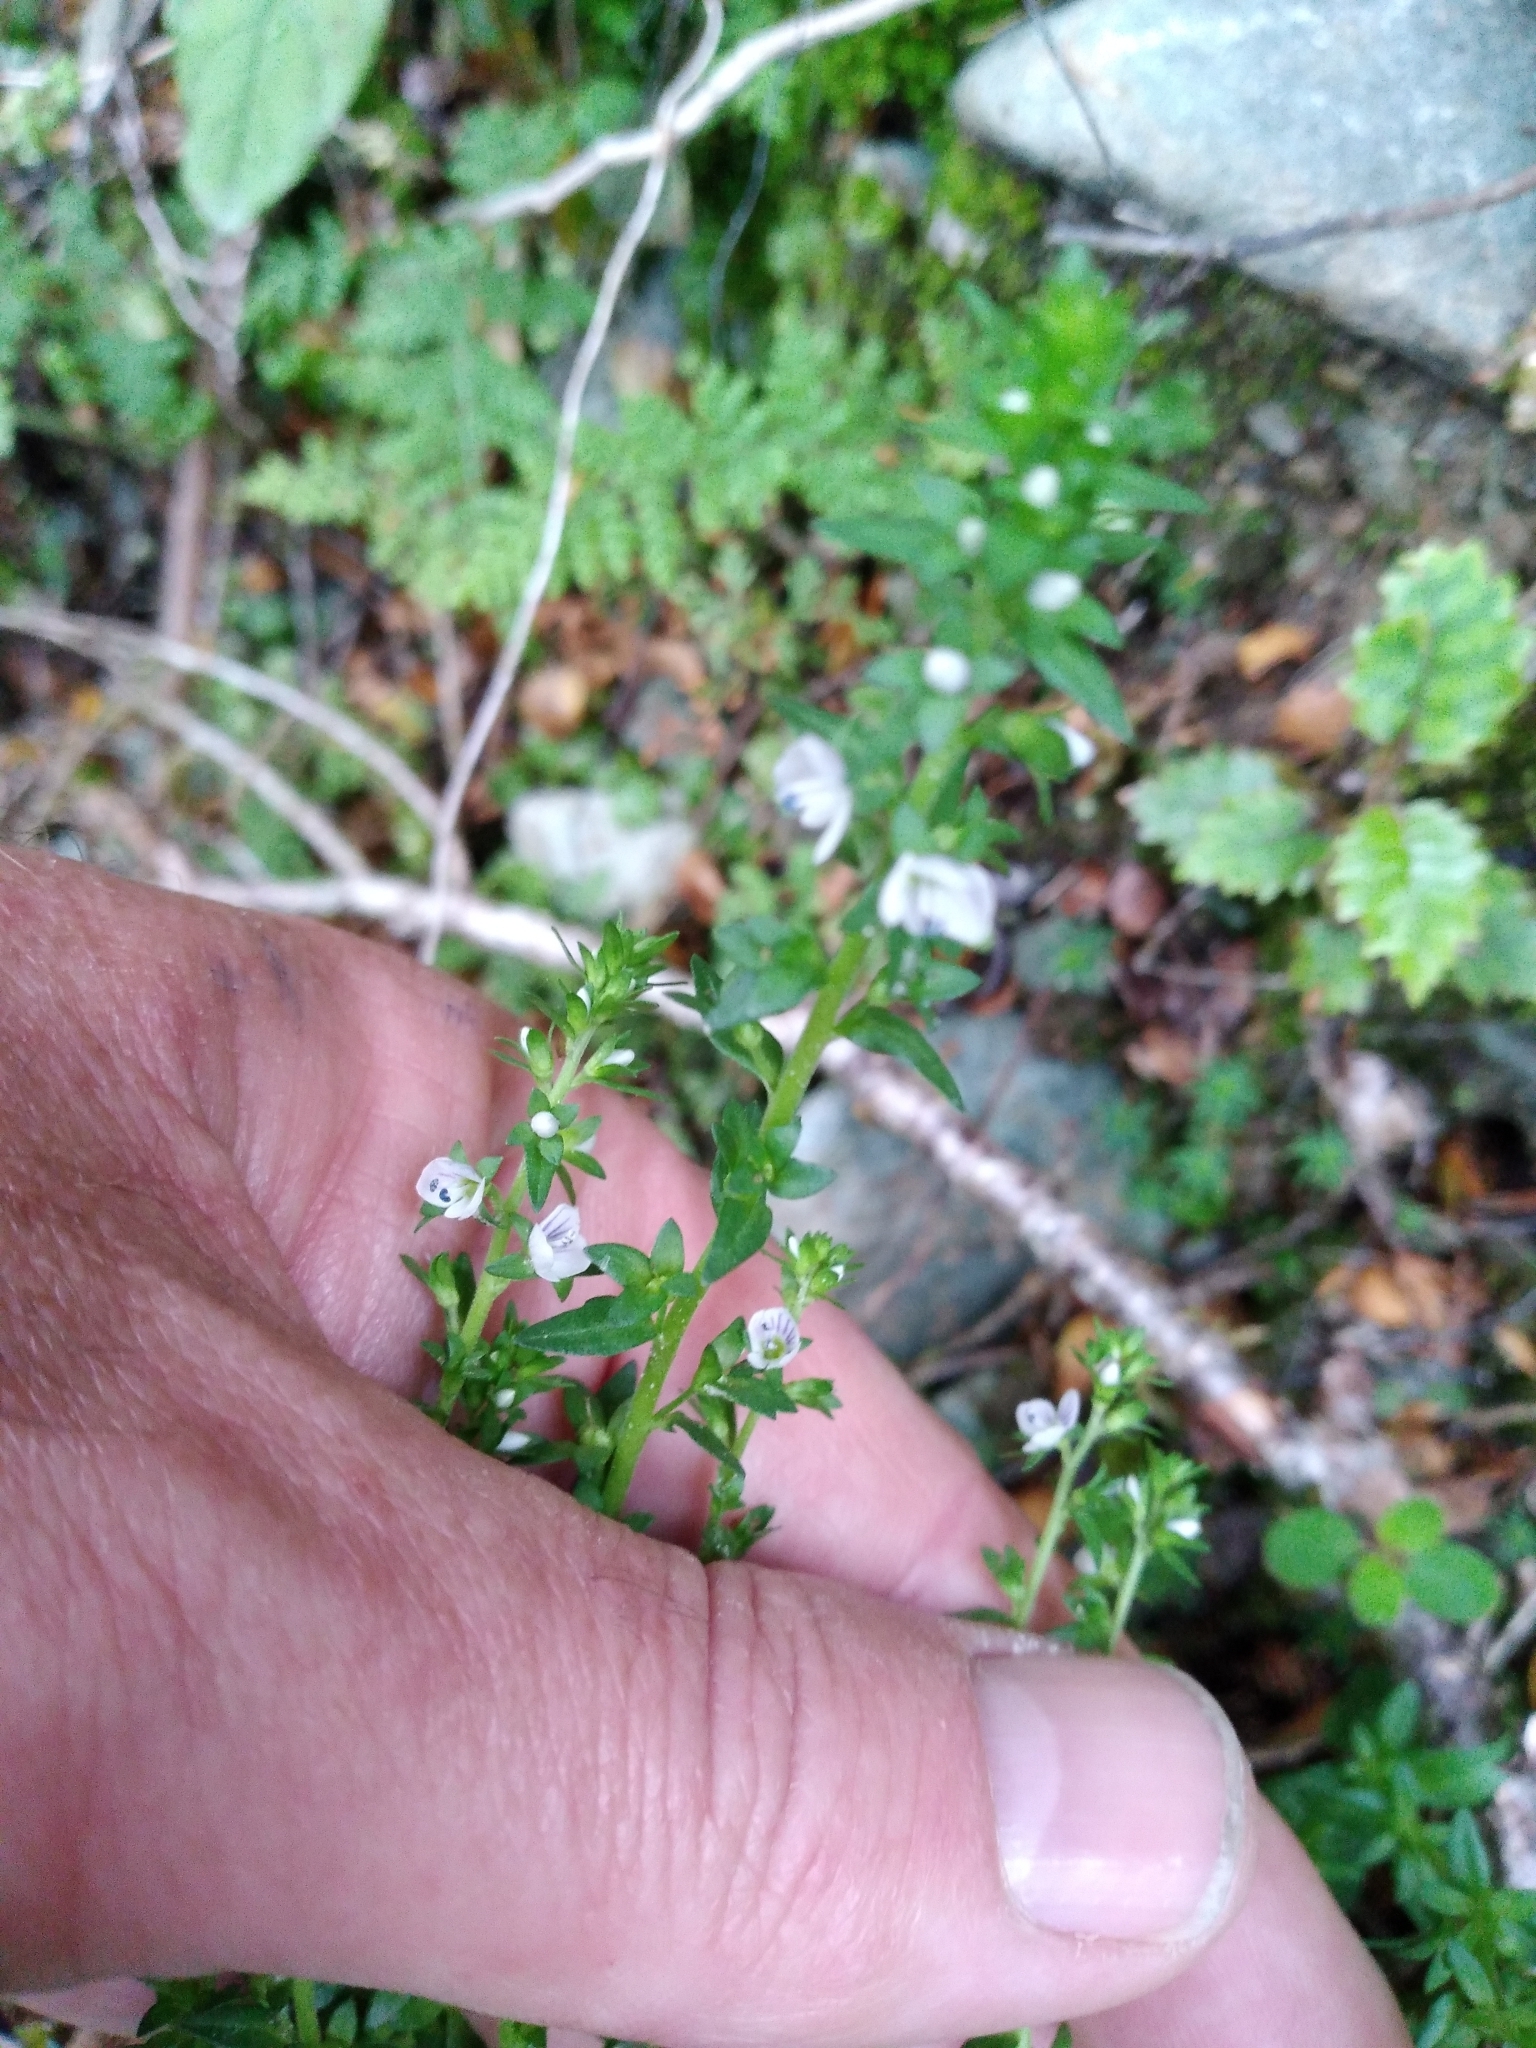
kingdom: Plantae
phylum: Tracheophyta
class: Magnoliopsida
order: Lamiales
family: Plantaginaceae
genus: Veronica
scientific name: Veronica serpyllifolia
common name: Thyme-leaved speedwell
